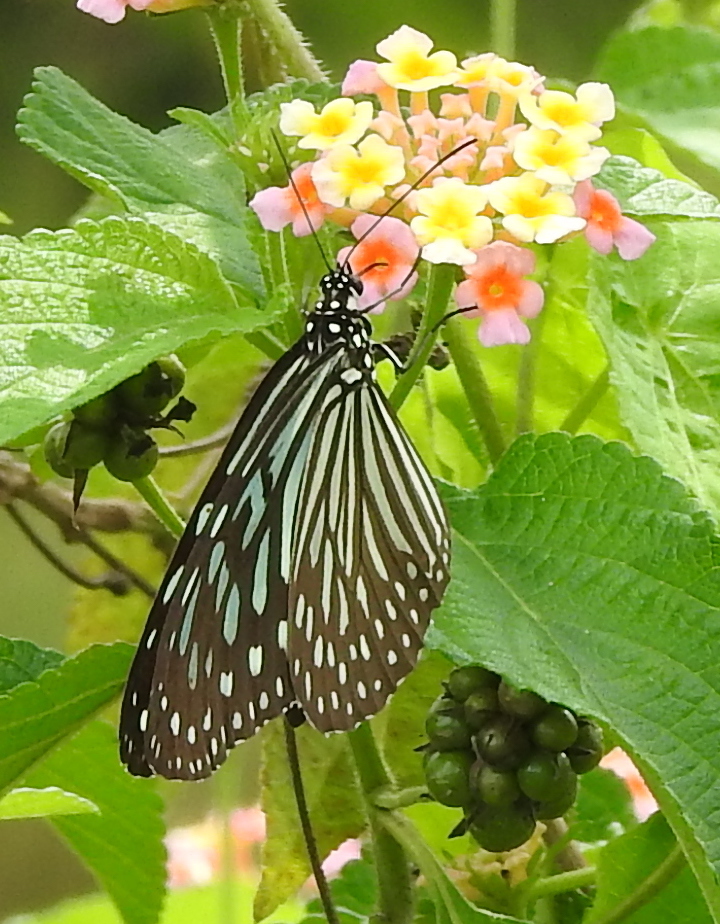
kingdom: Animalia
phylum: Arthropoda
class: Insecta
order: Lepidoptera
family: Nymphalidae
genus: Ideopsis
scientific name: Ideopsis vulgaris
